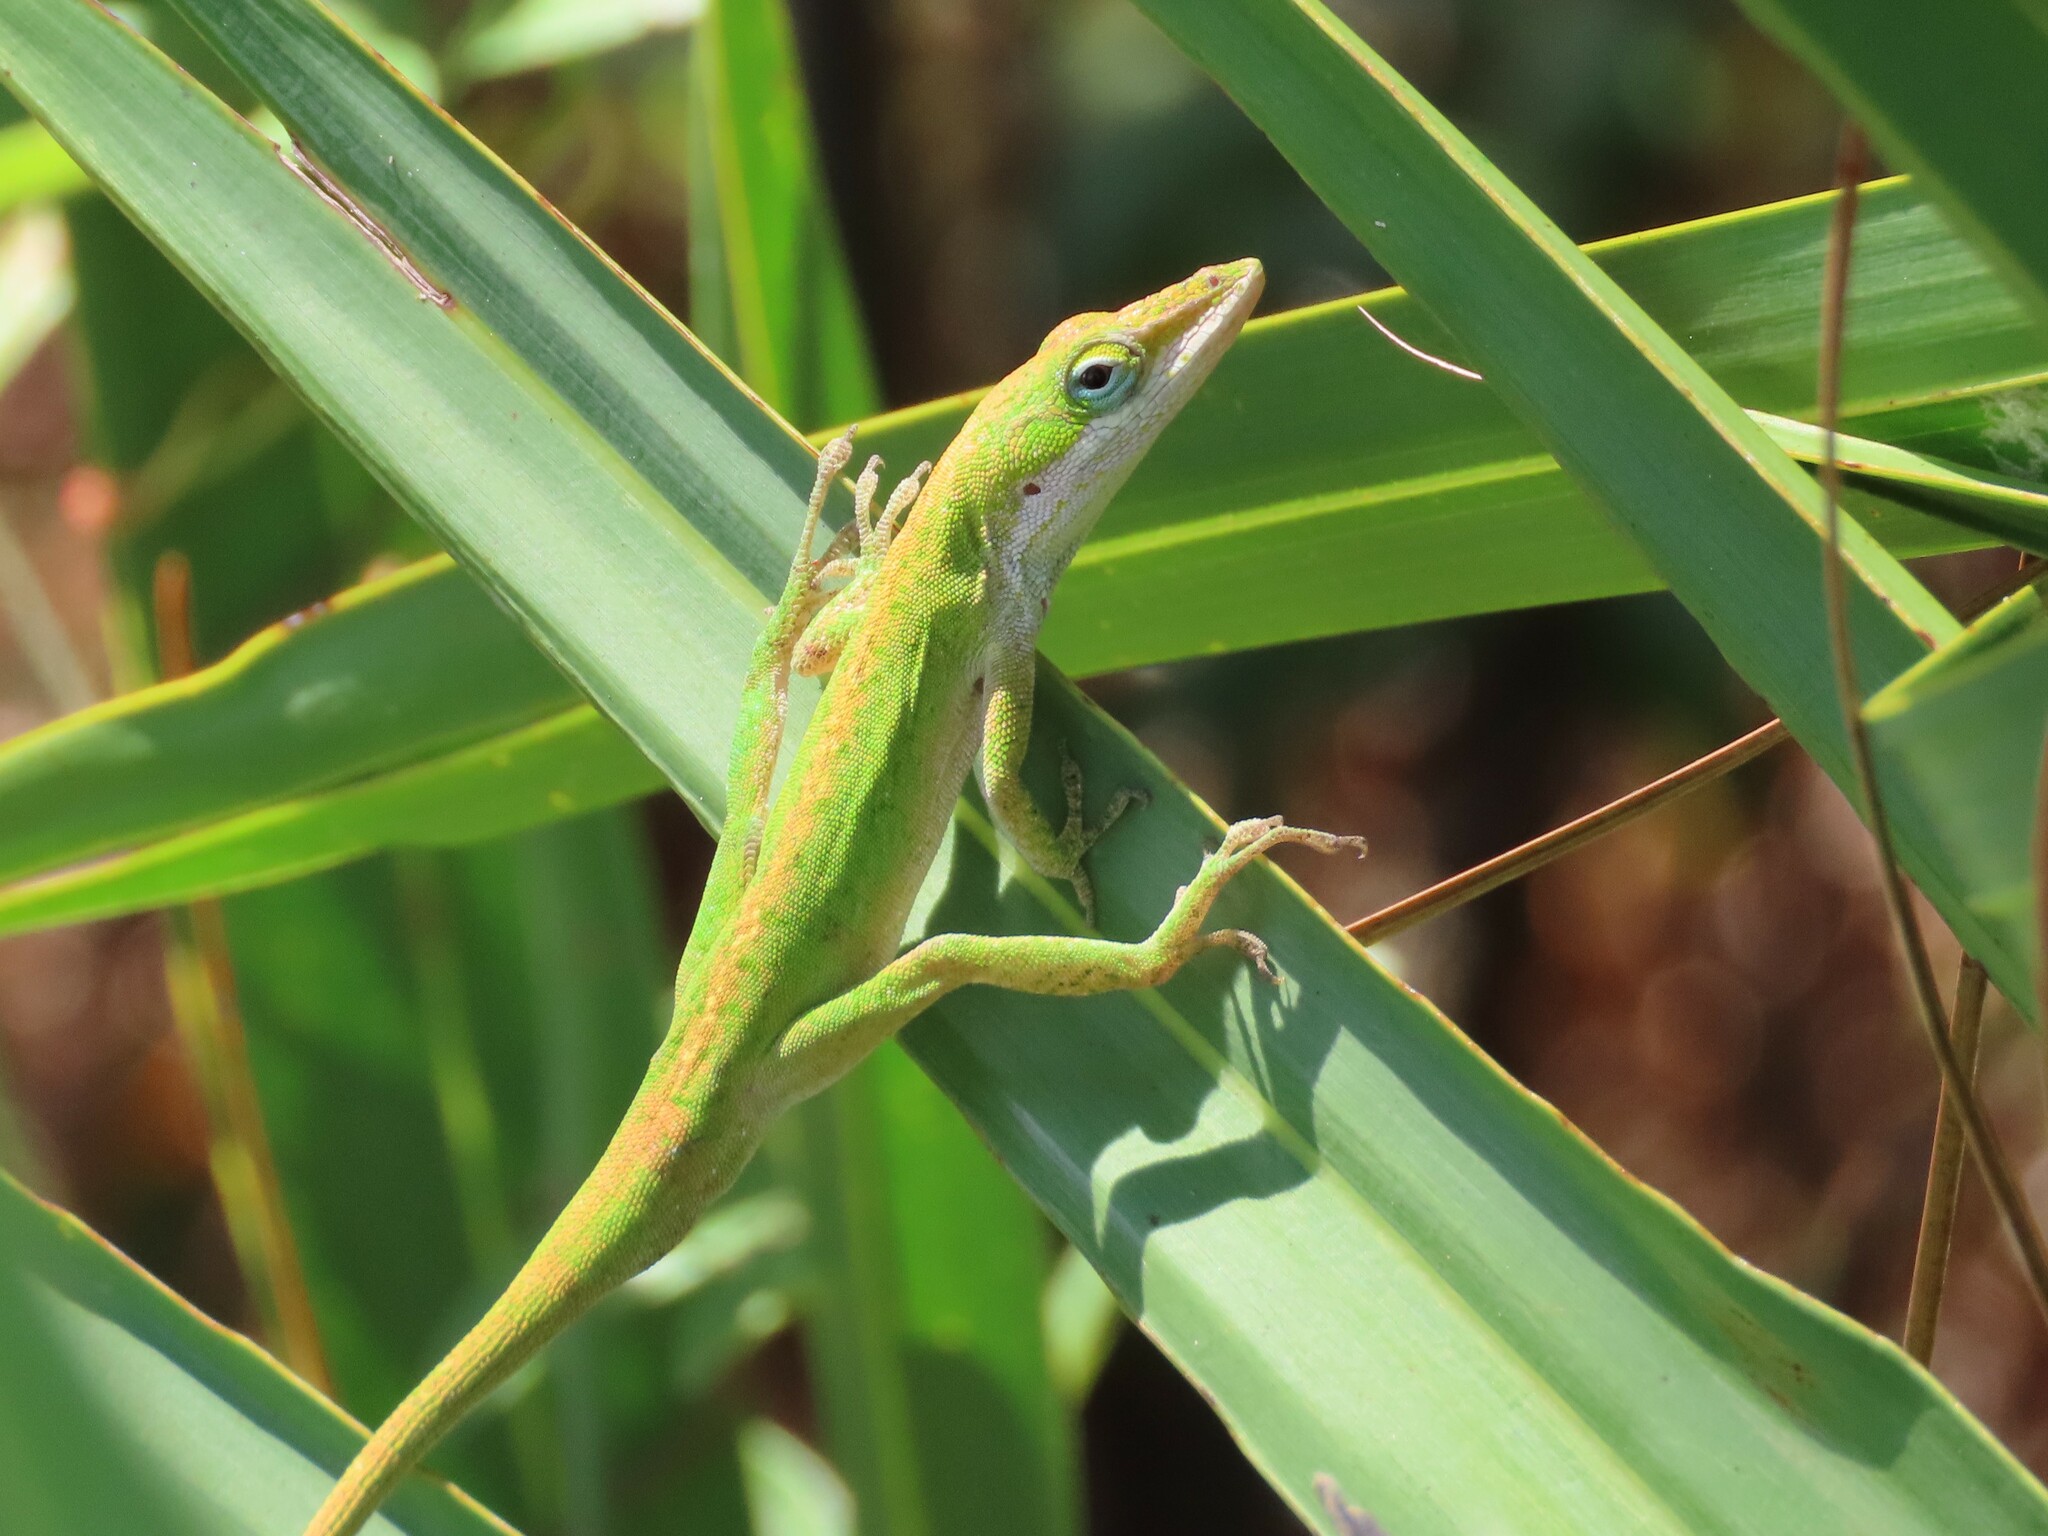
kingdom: Animalia
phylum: Chordata
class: Squamata
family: Dactyloidae
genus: Anolis
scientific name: Anolis carolinensis
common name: Green anole
